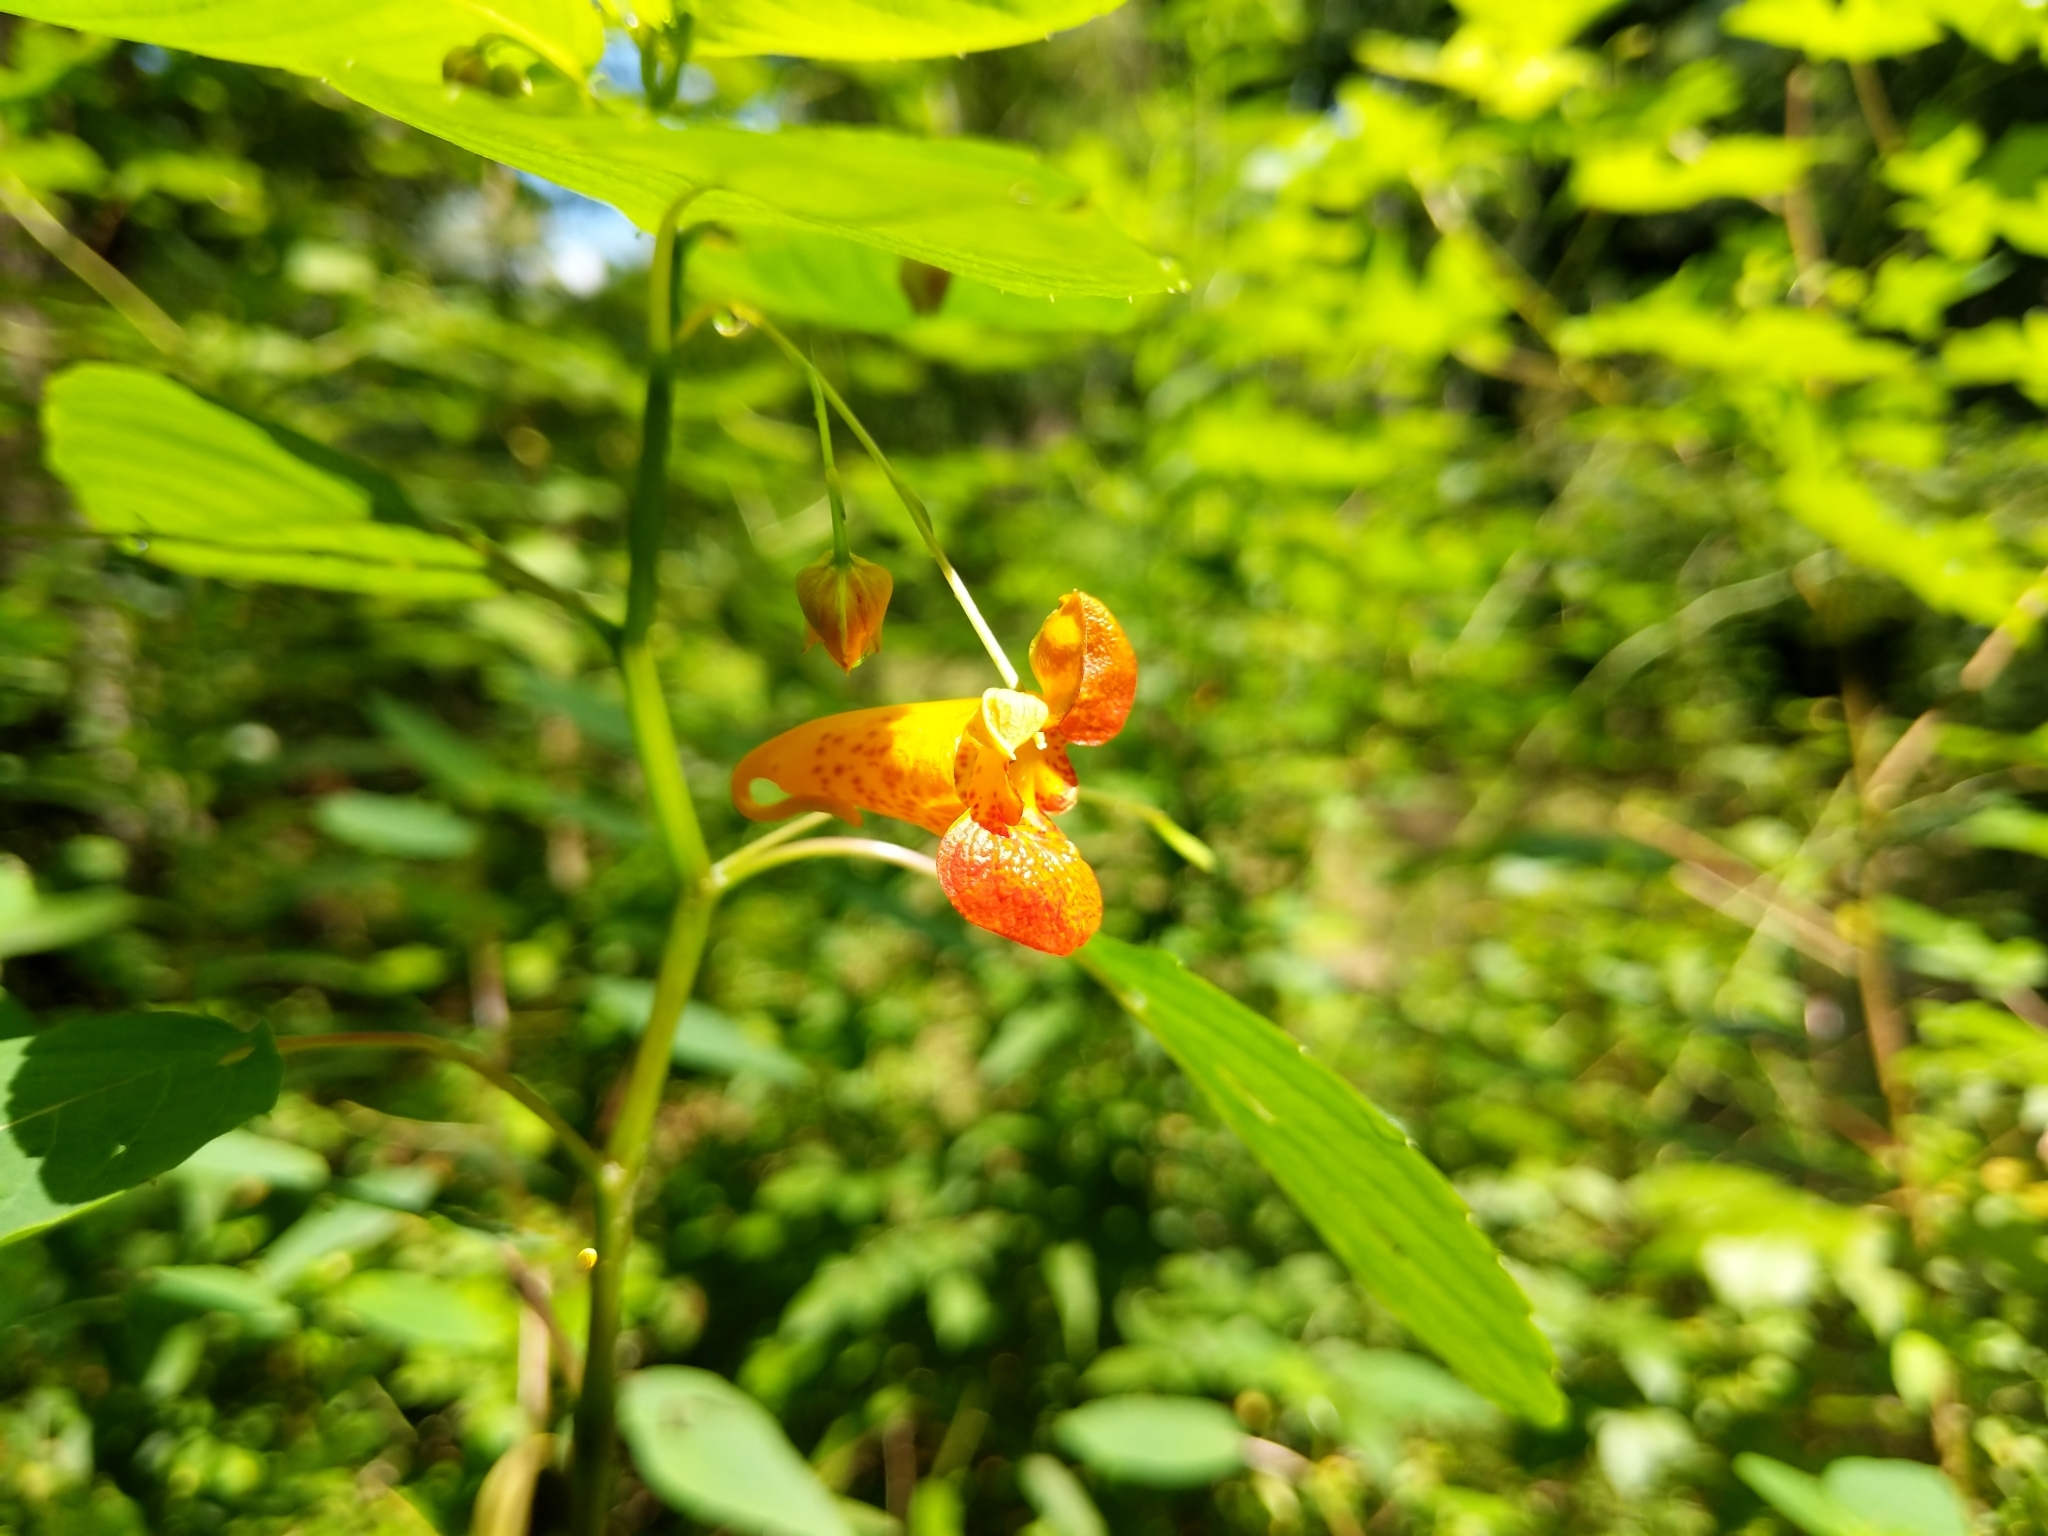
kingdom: Plantae
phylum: Tracheophyta
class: Magnoliopsida
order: Ericales
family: Balsaminaceae
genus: Impatiens
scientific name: Impatiens capensis
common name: Orange balsam
